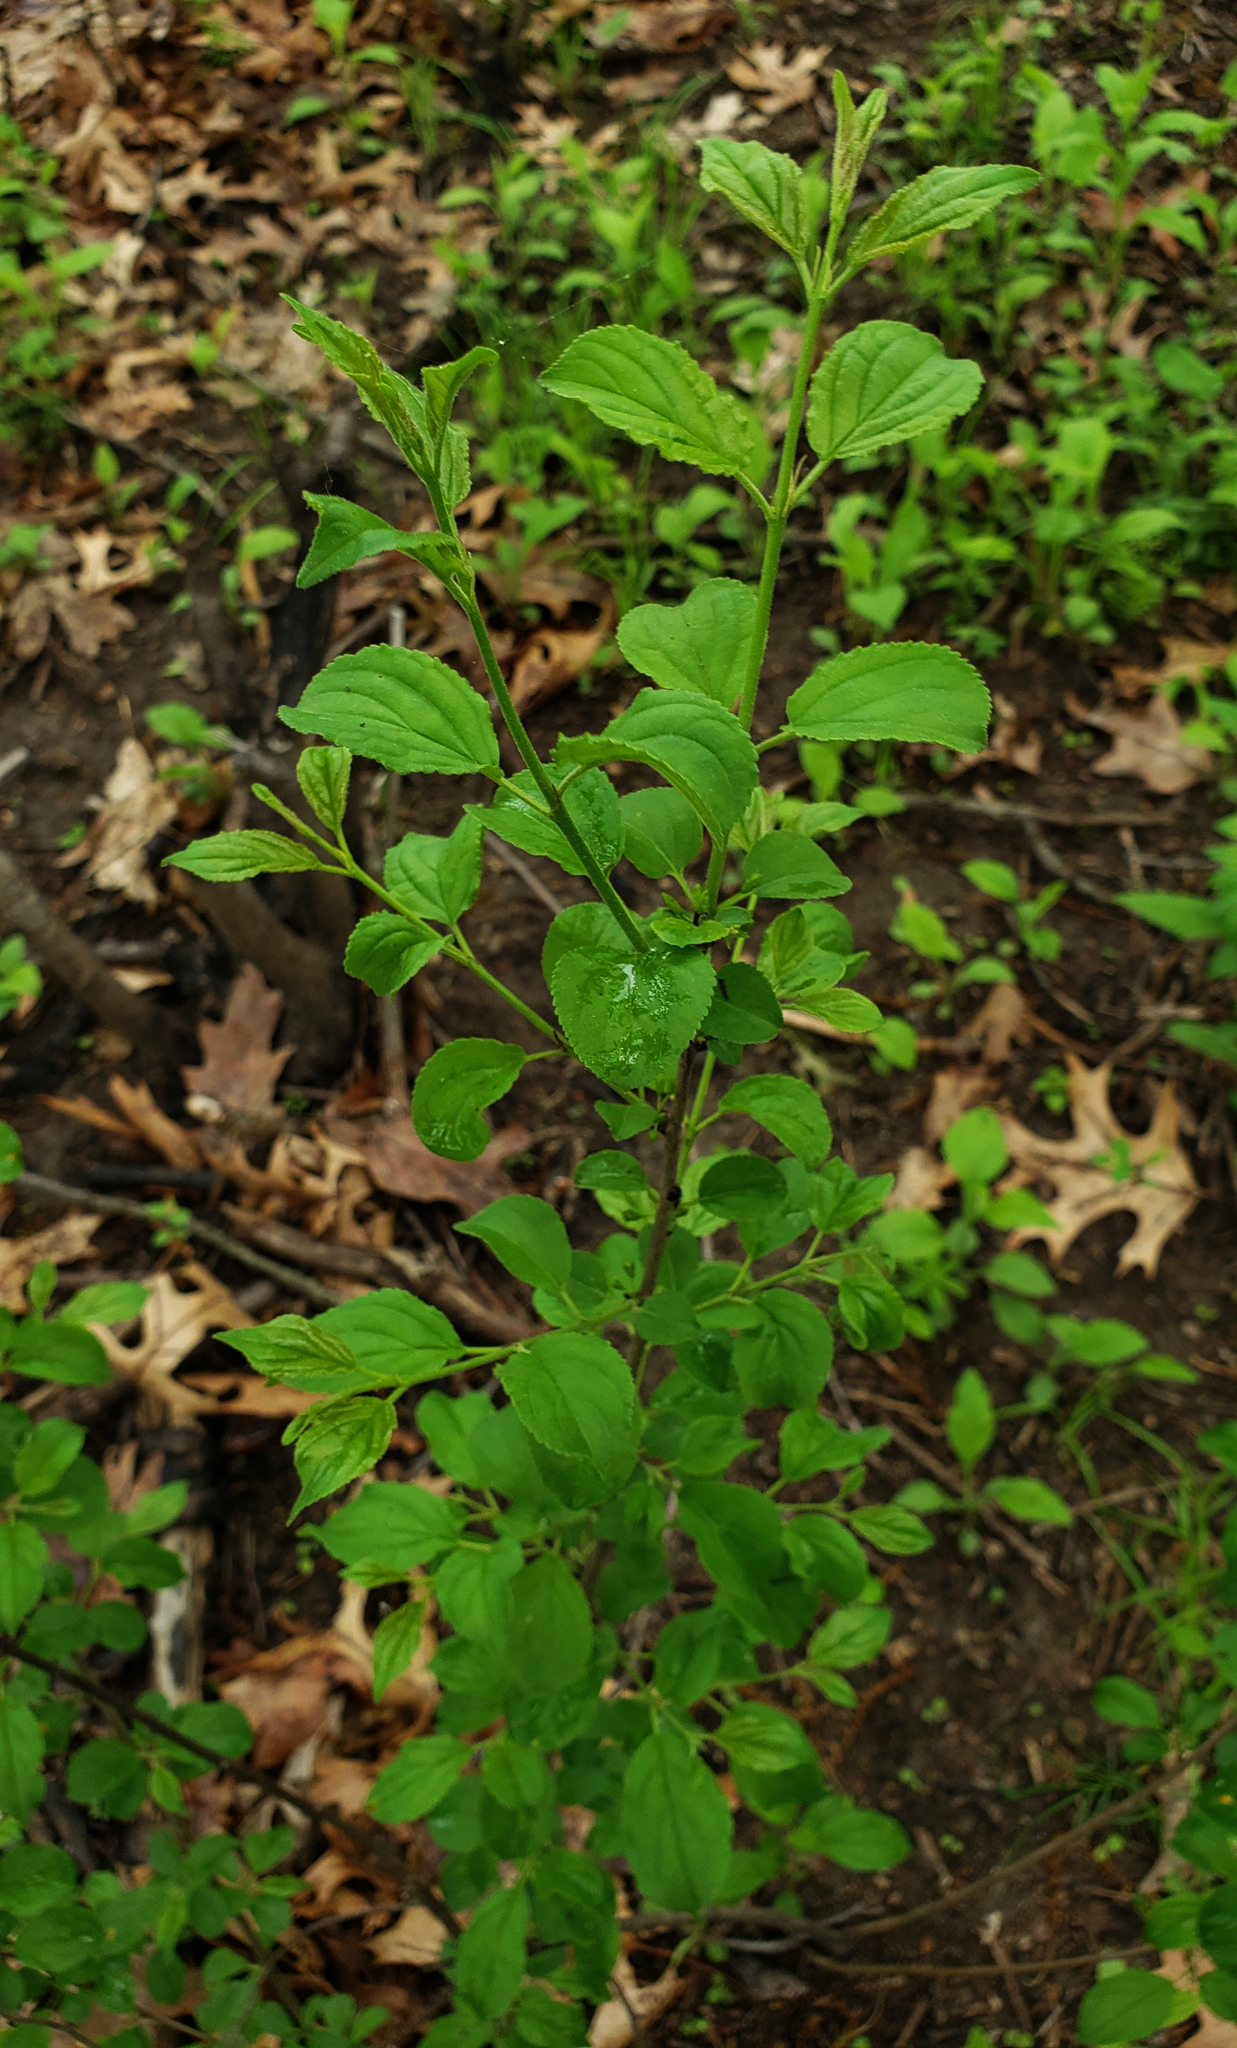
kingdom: Plantae
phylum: Tracheophyta
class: Magnoliopsida
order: Rosales
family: Rhamnaceae
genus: Rhamnus
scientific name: Rhamnus cathartica
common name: Common buckthorn
